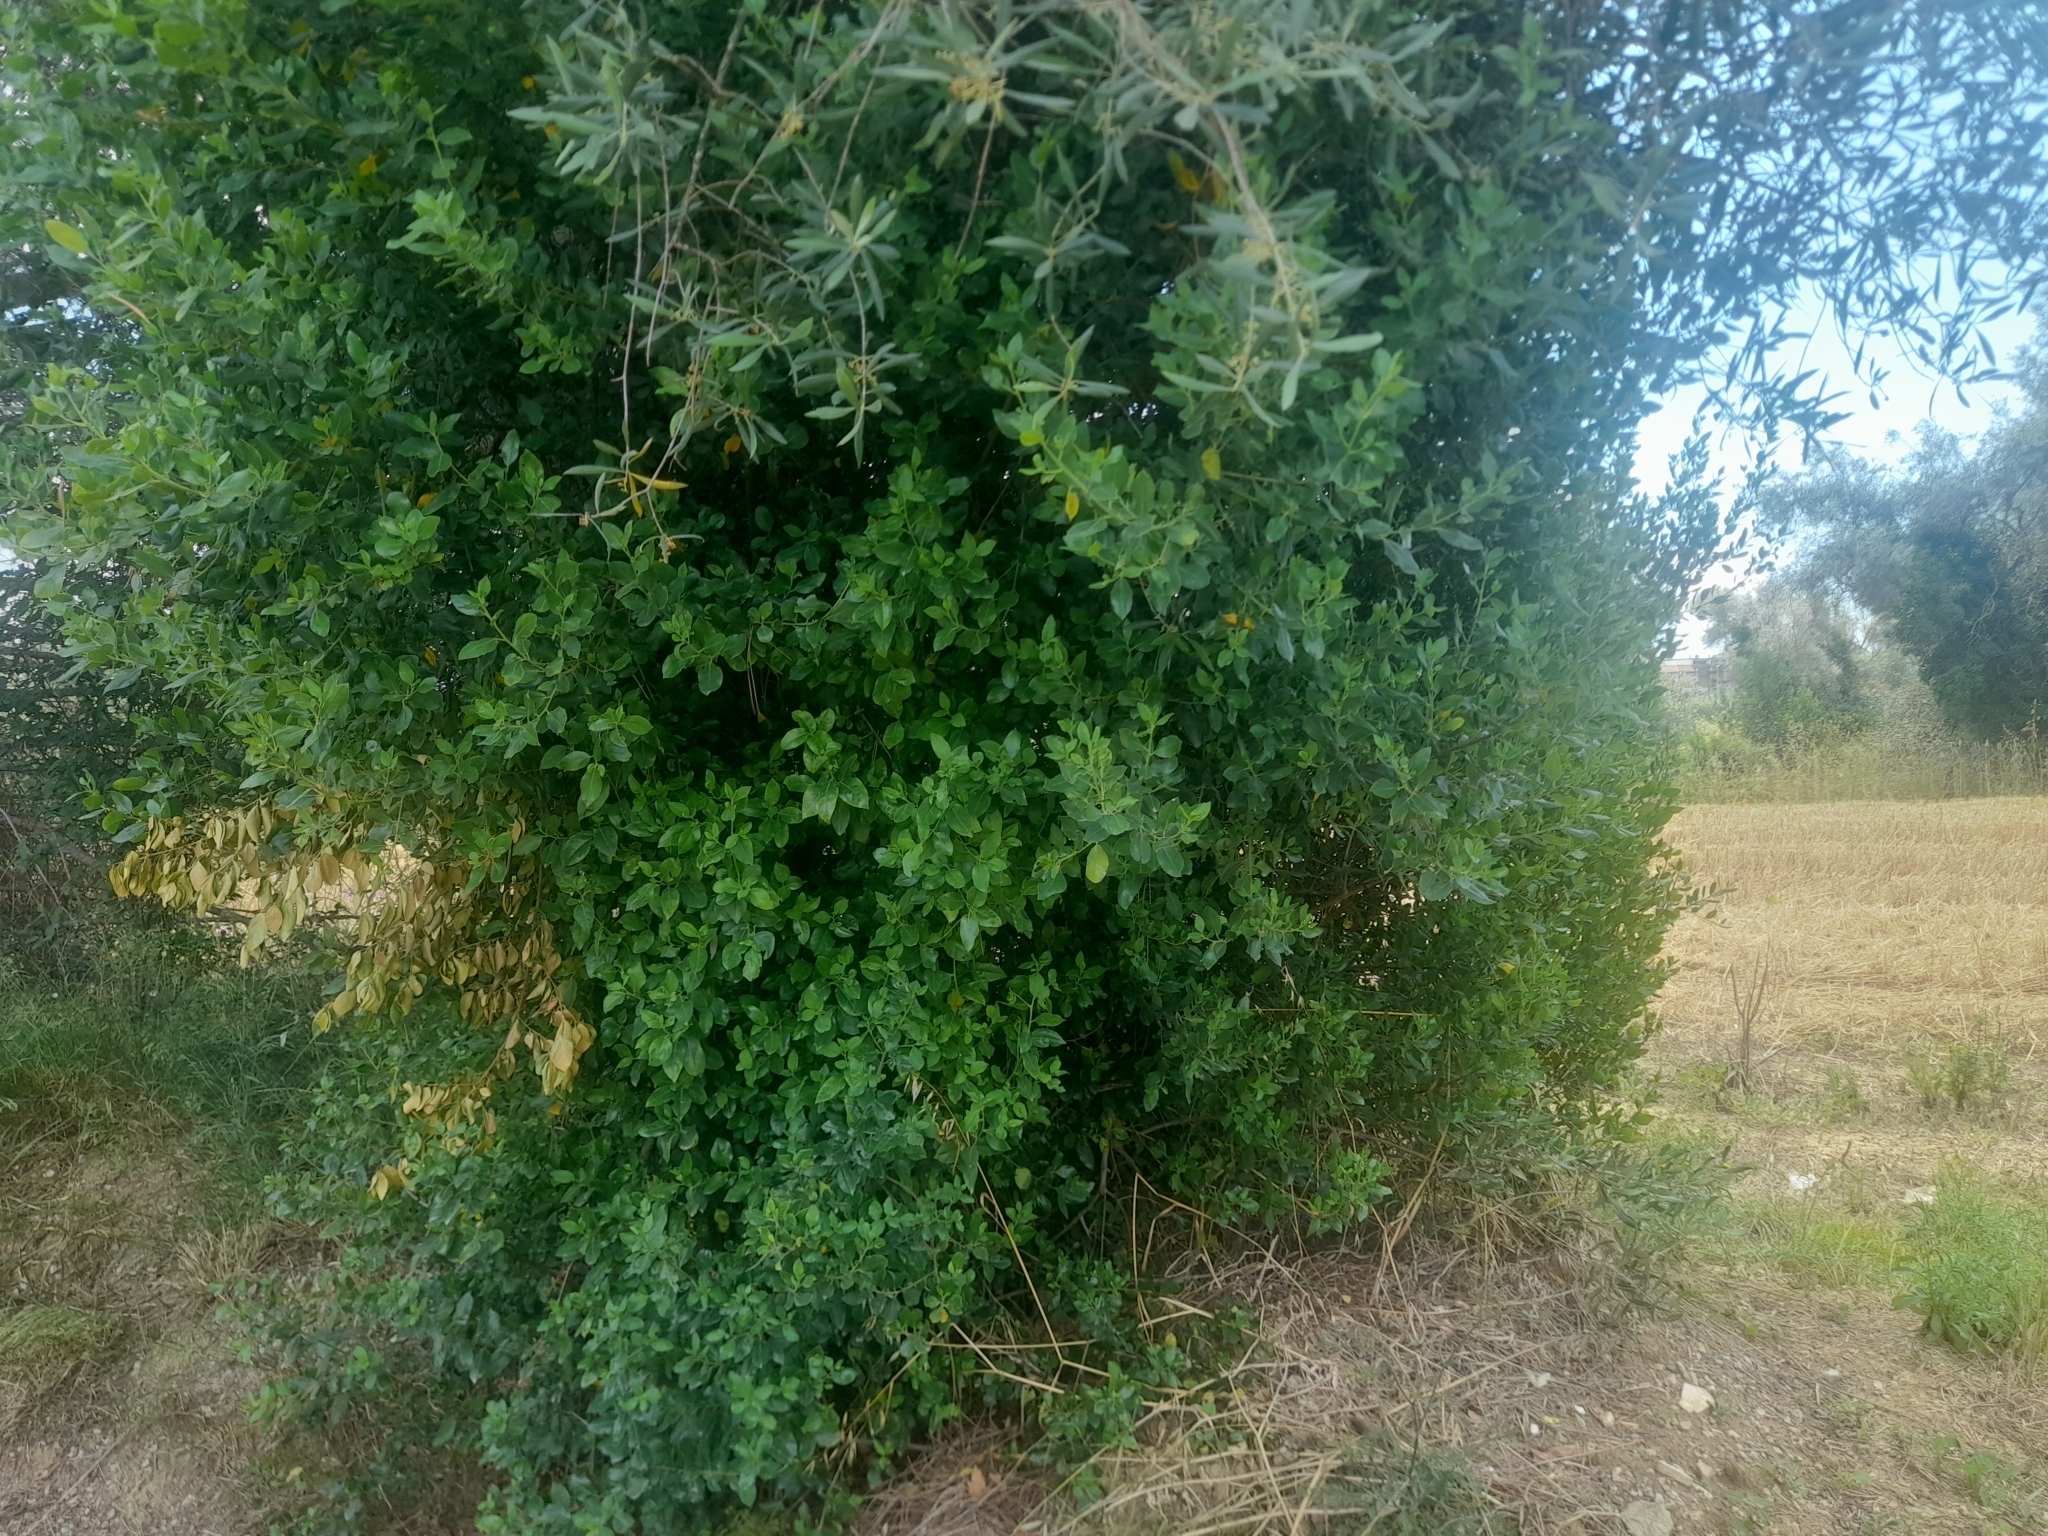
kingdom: Plantae
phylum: Tracheophyta
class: Magnoliopsida
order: Rosales
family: Rhamnaceae
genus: Rhamnus
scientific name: Rhamnus alaternus
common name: Mediterranean buckthorn
